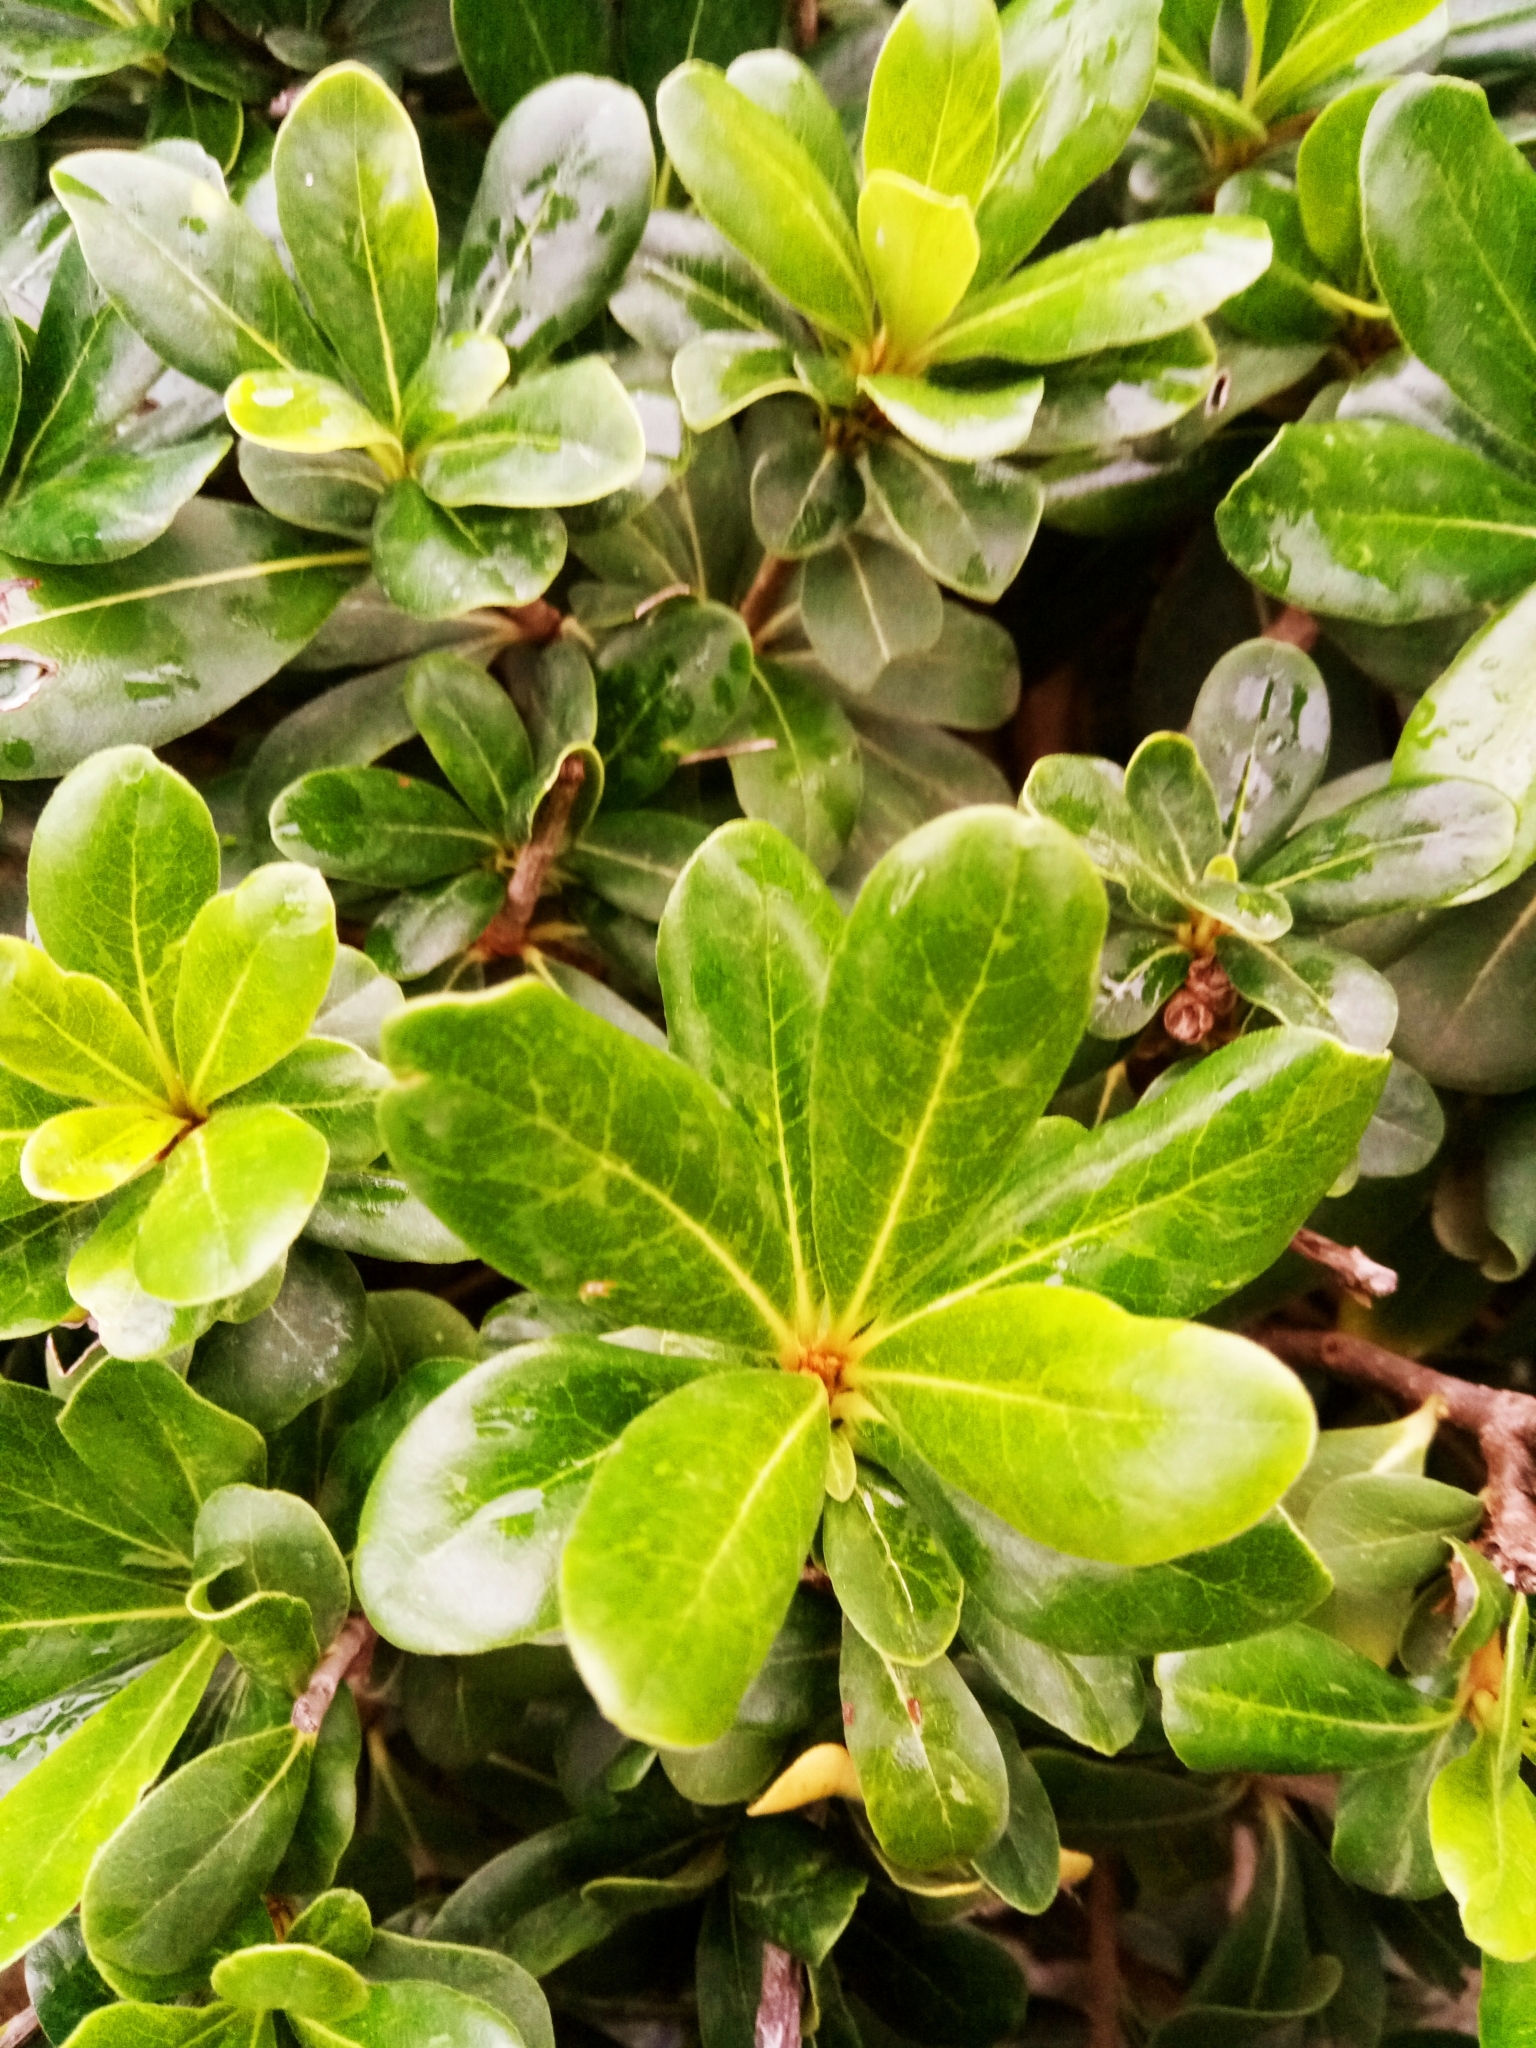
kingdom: Plantae
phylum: Tracheophyta
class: Magnoliopsida
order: Apiales
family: Pittosporaceae
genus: Pittosporum
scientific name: Pittosporum tobira
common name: Japanese cheesewood
